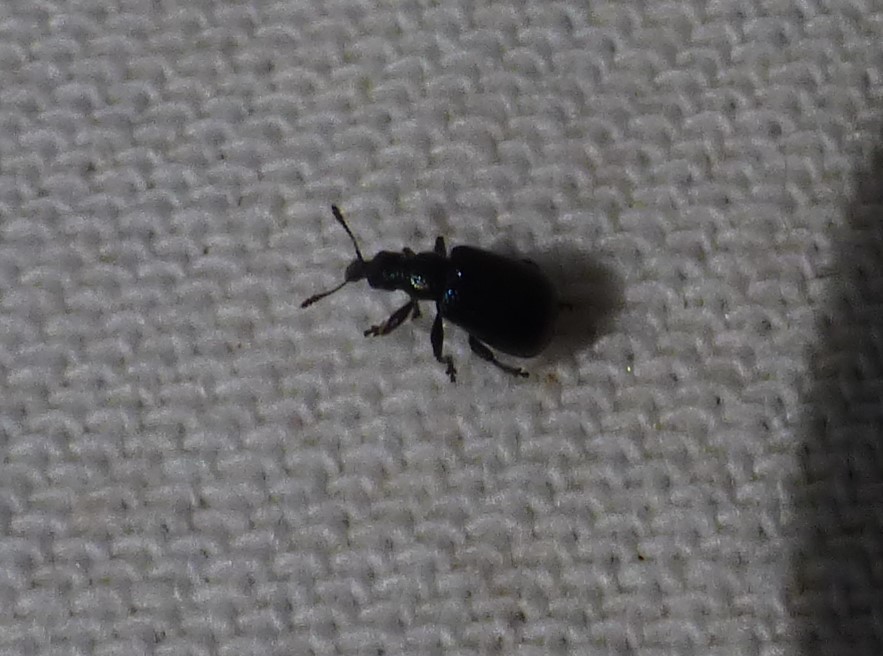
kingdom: Animalia
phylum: Arthropoda
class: Insecta
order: Coleoptera
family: Attelabidae
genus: Deporaus
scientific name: Deporaus betulae
